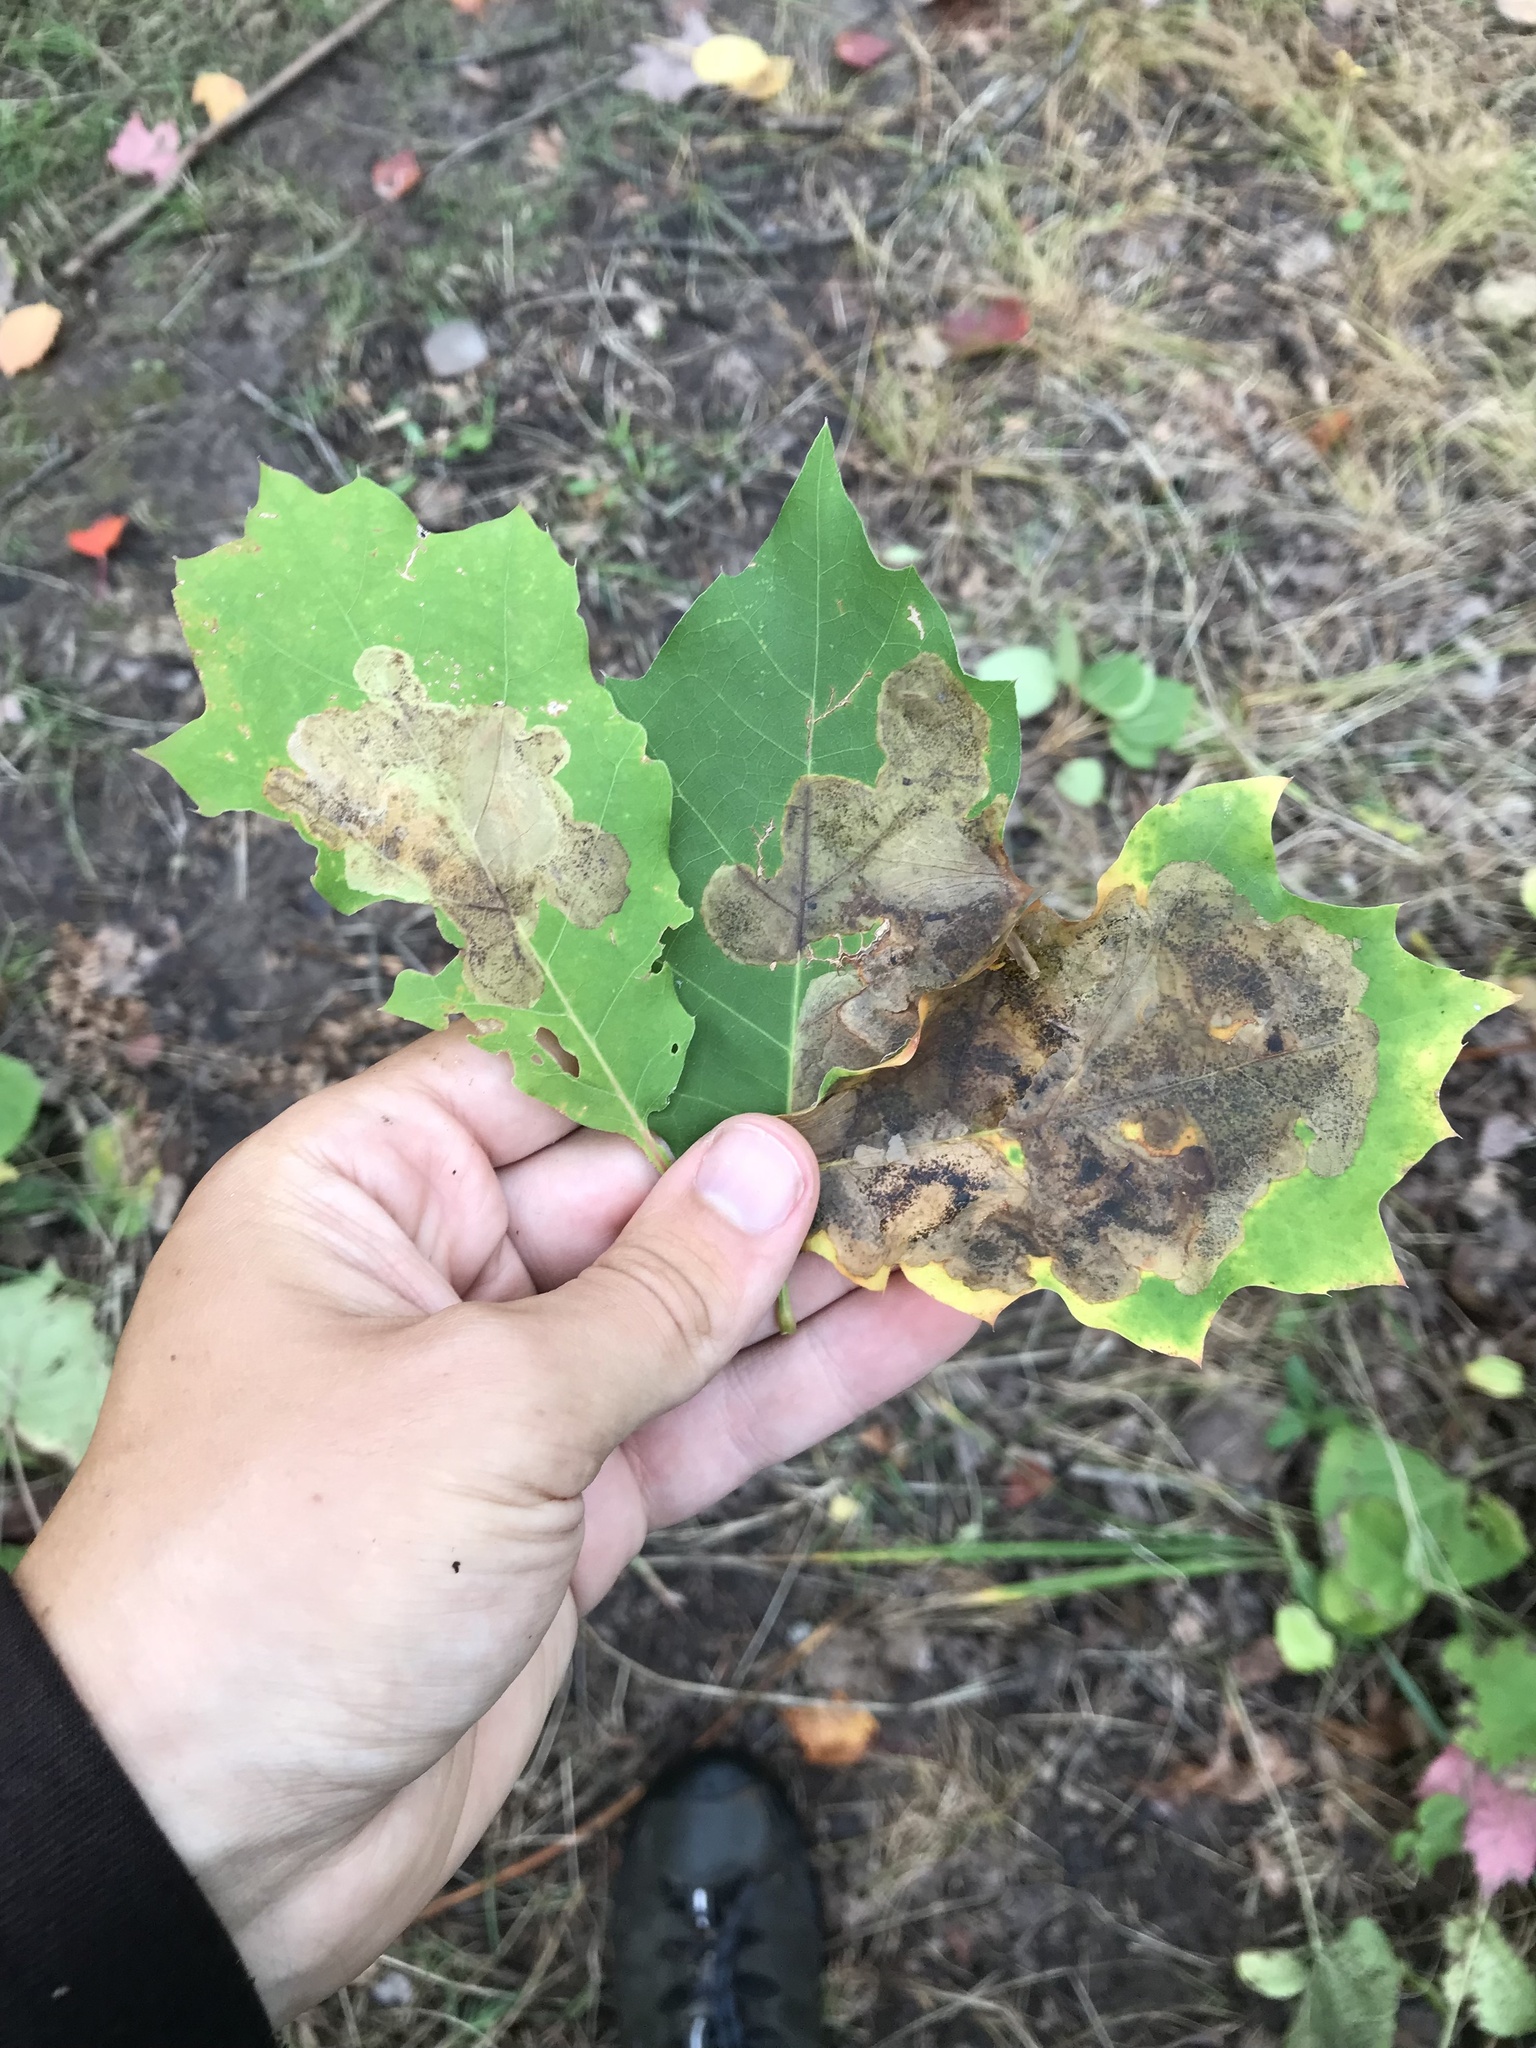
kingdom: Animalia
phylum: Arthropoda
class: Insecta
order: Lepidoptera
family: Gracillariidae
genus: Cameraria
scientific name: Cameraria bethunella
